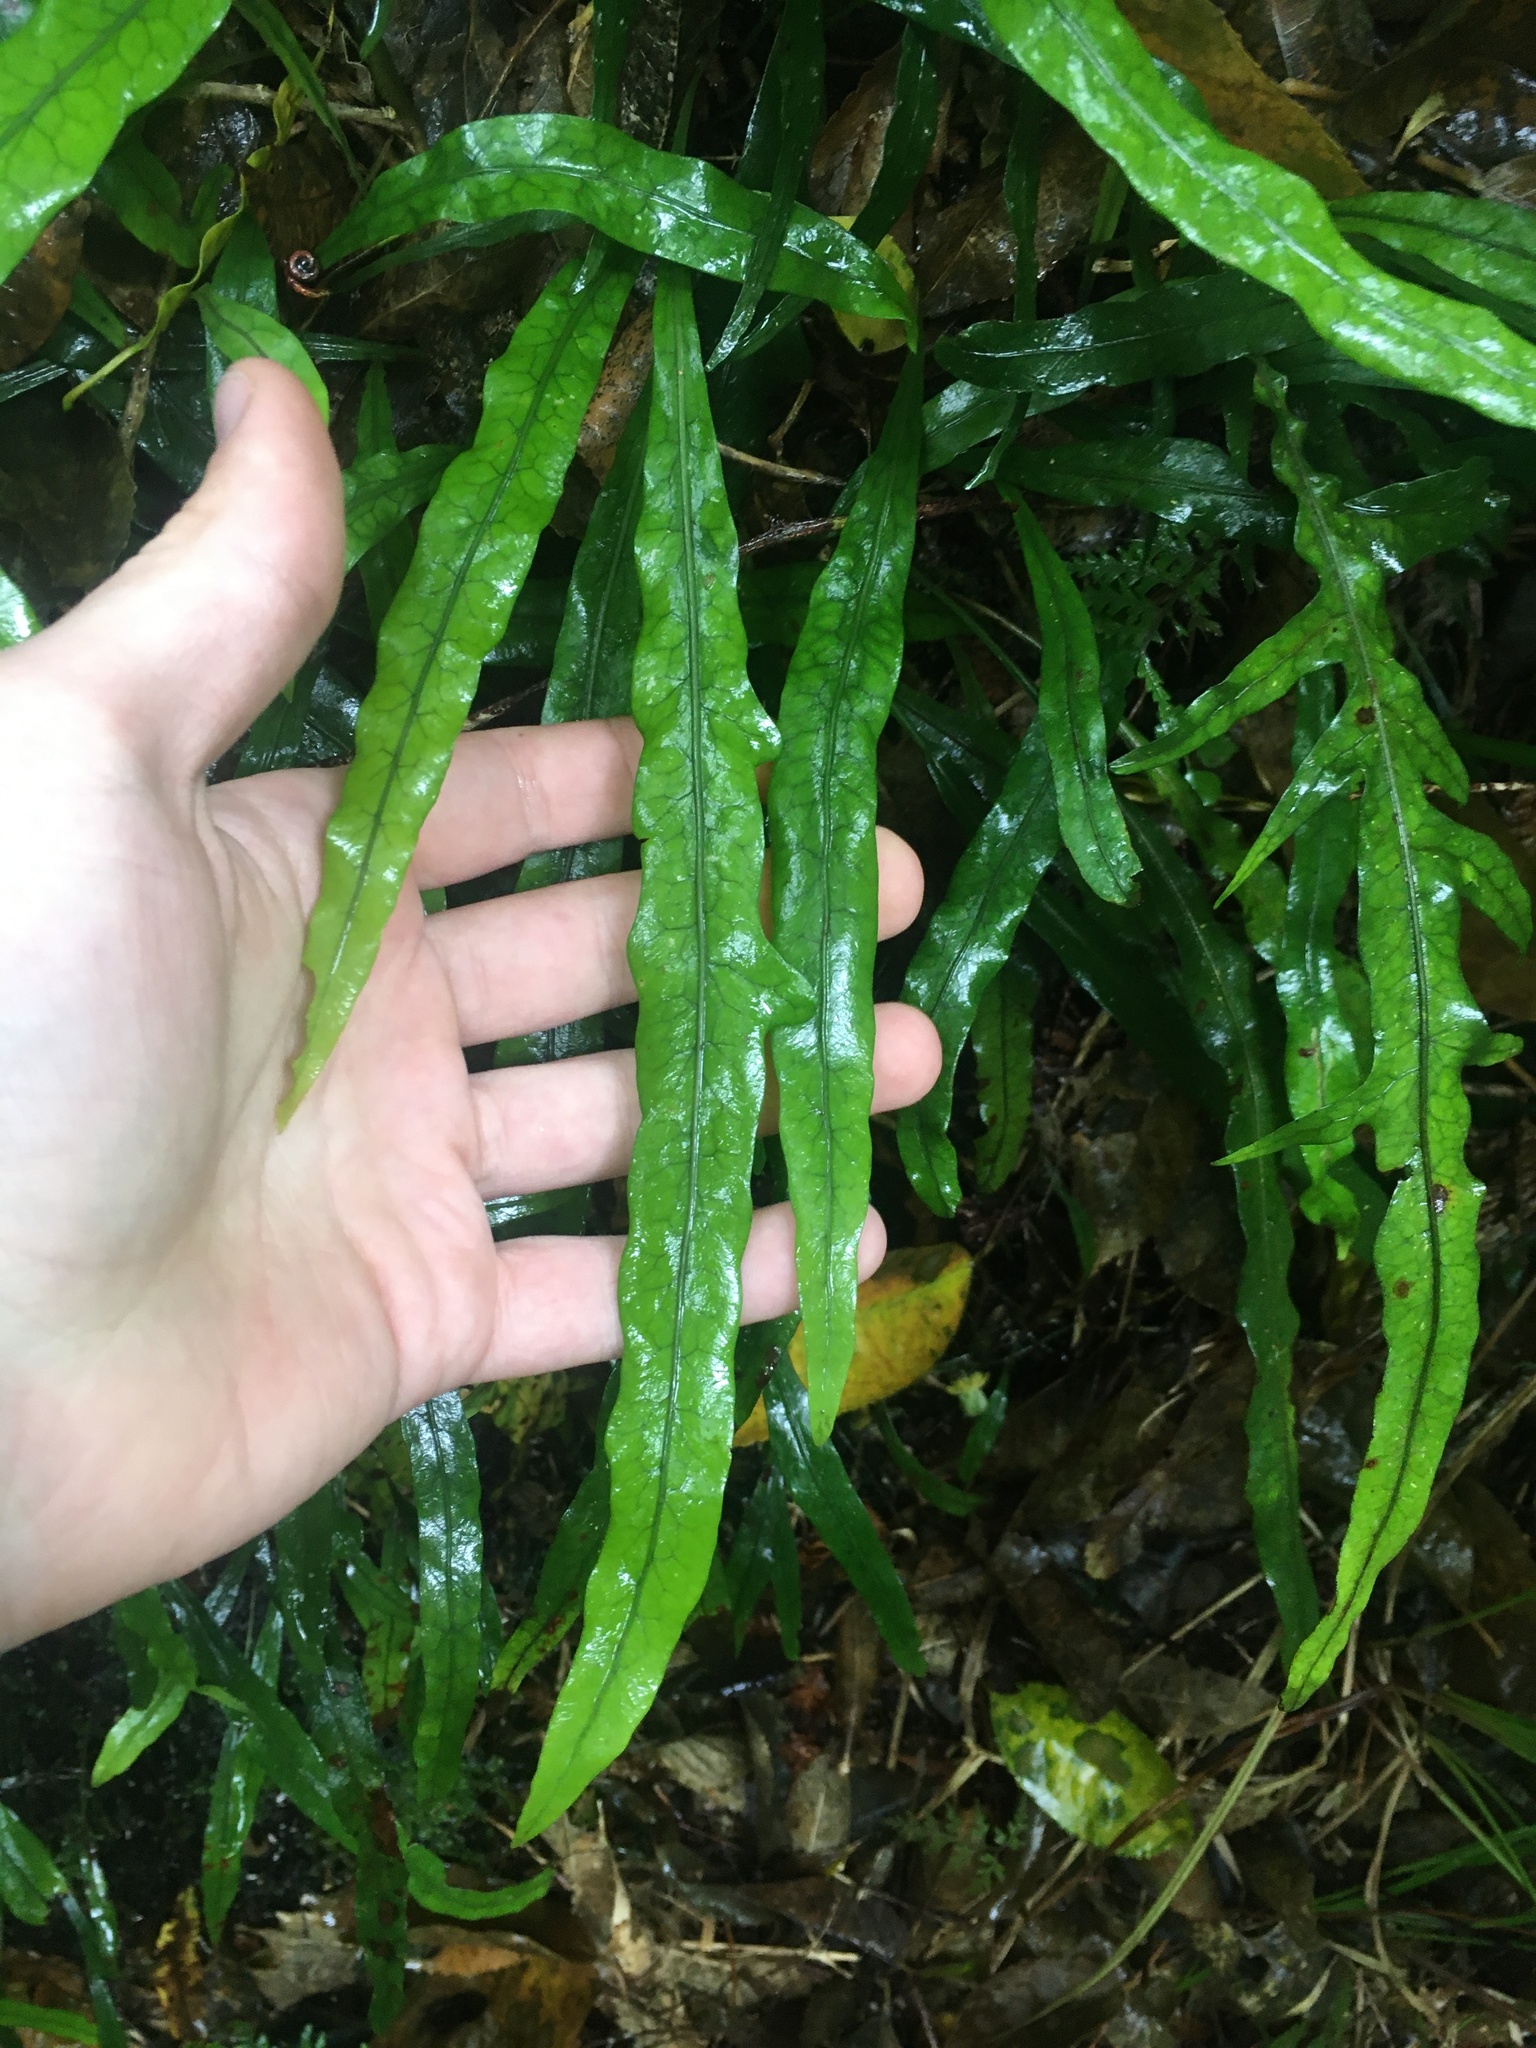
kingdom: Plantae
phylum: Tracheophyta
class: Polypodiopsida
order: Polypodiales
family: Polypodiaceae
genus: Lecanopteris
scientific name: Lecanopteris scandens
